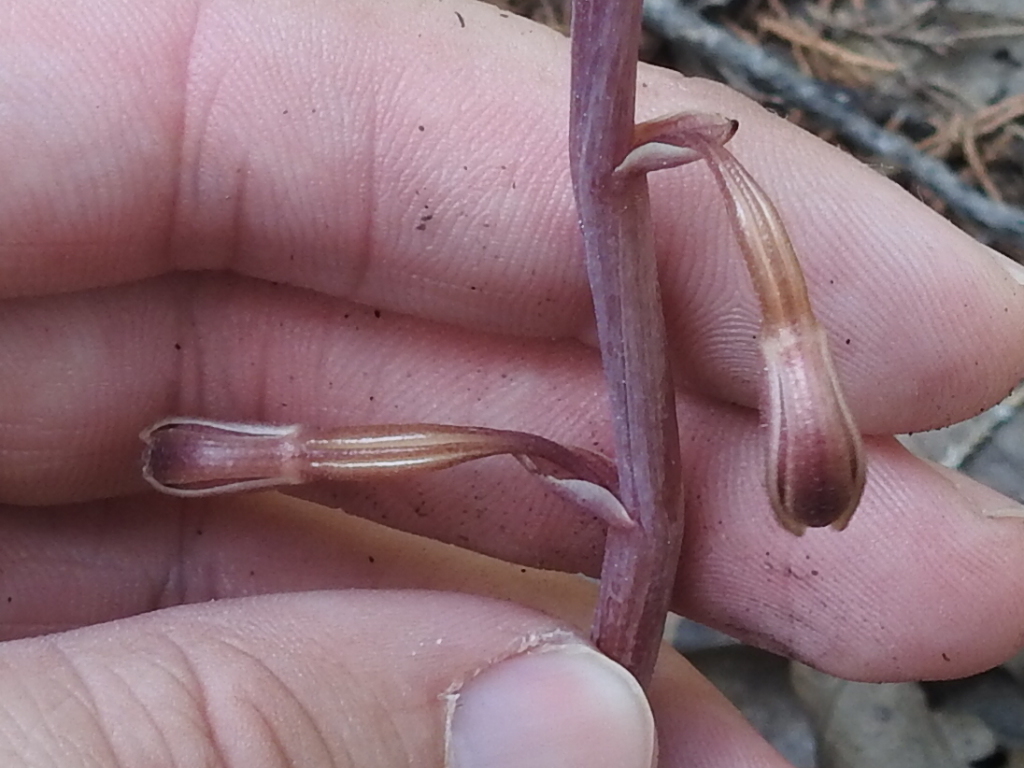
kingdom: Plantae
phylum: Tracheophyta
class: Liliopsida
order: Asparagales
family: Orchidaceae
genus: Bletia
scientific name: Bletia nitida
